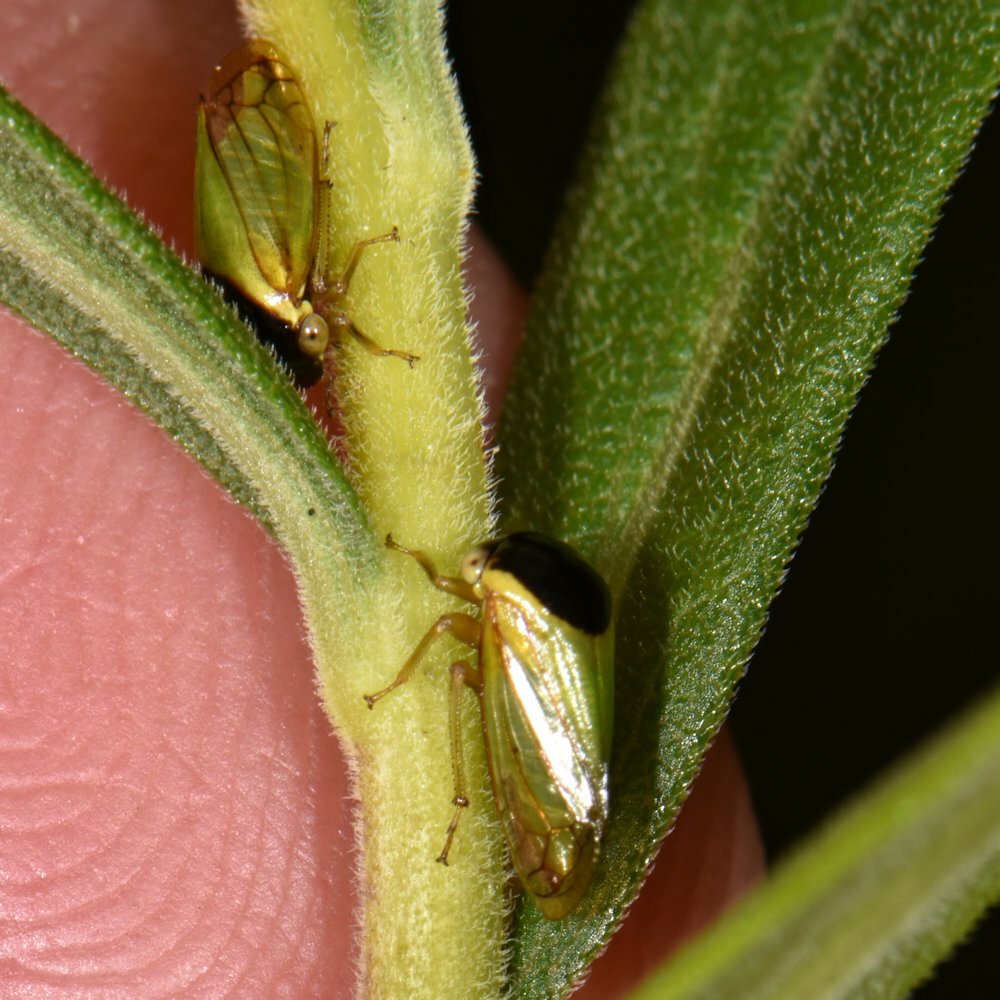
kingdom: Animalia
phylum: Arthropoda
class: Insecta
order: Hemiptera
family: Membracidae
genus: Acutalis
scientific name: Acutalis tartarea
